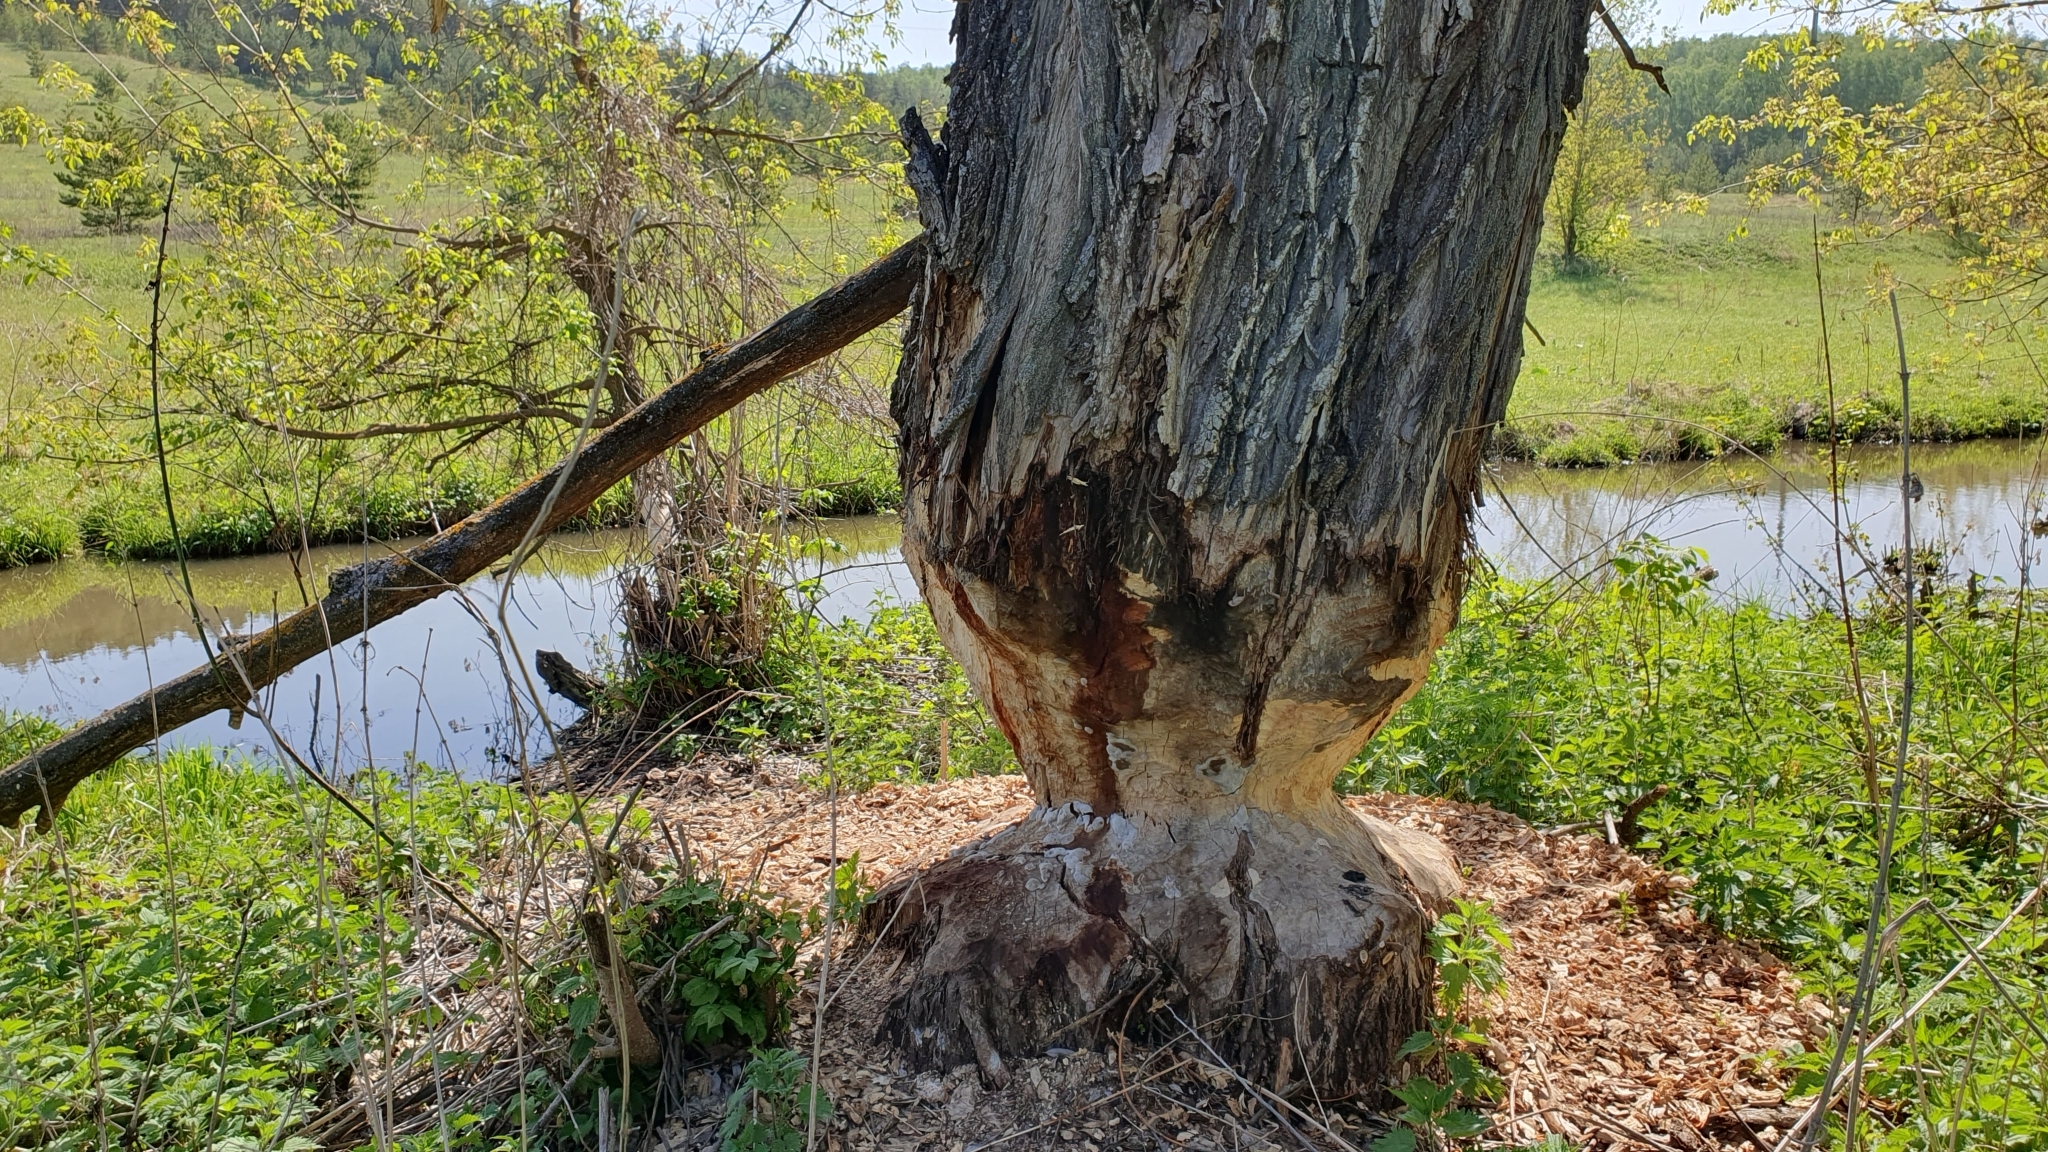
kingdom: Animalia
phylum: Chordata
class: Mammalia
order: Rodentia
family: Castoridae
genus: Castor
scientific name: Castor fiber
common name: Eurasian beaver
